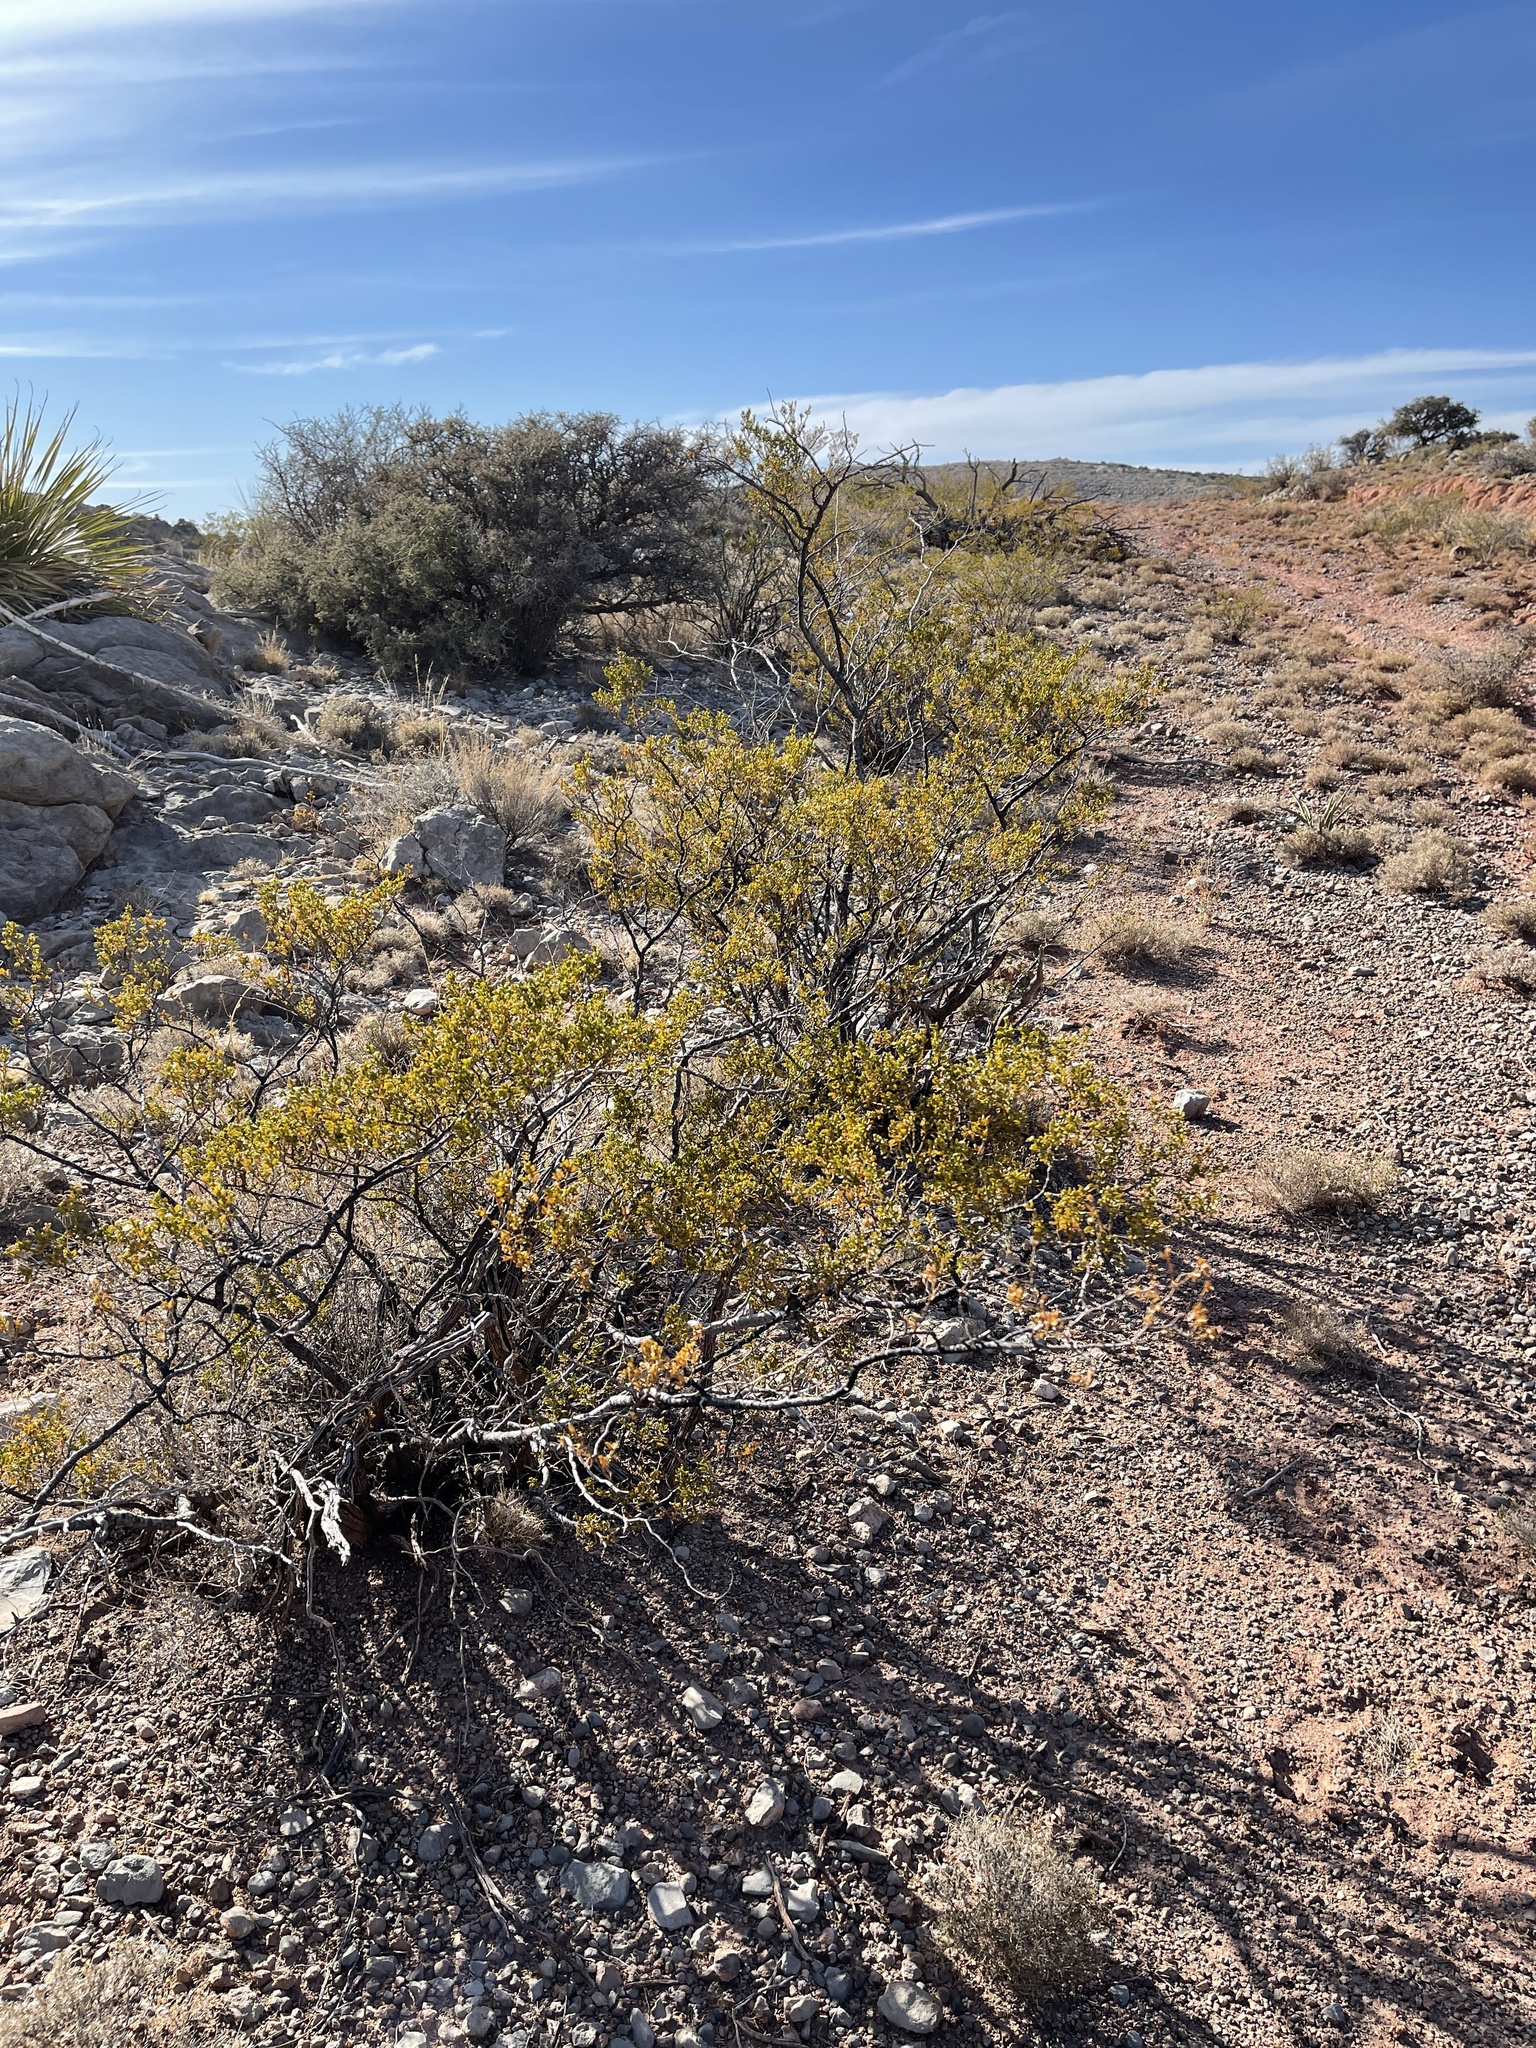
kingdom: Plantae
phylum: Tracheophyta
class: Magnoliopsida
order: Zygophyllales
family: Zygophyllaceae
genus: Larrea
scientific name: Larrea tridentata
